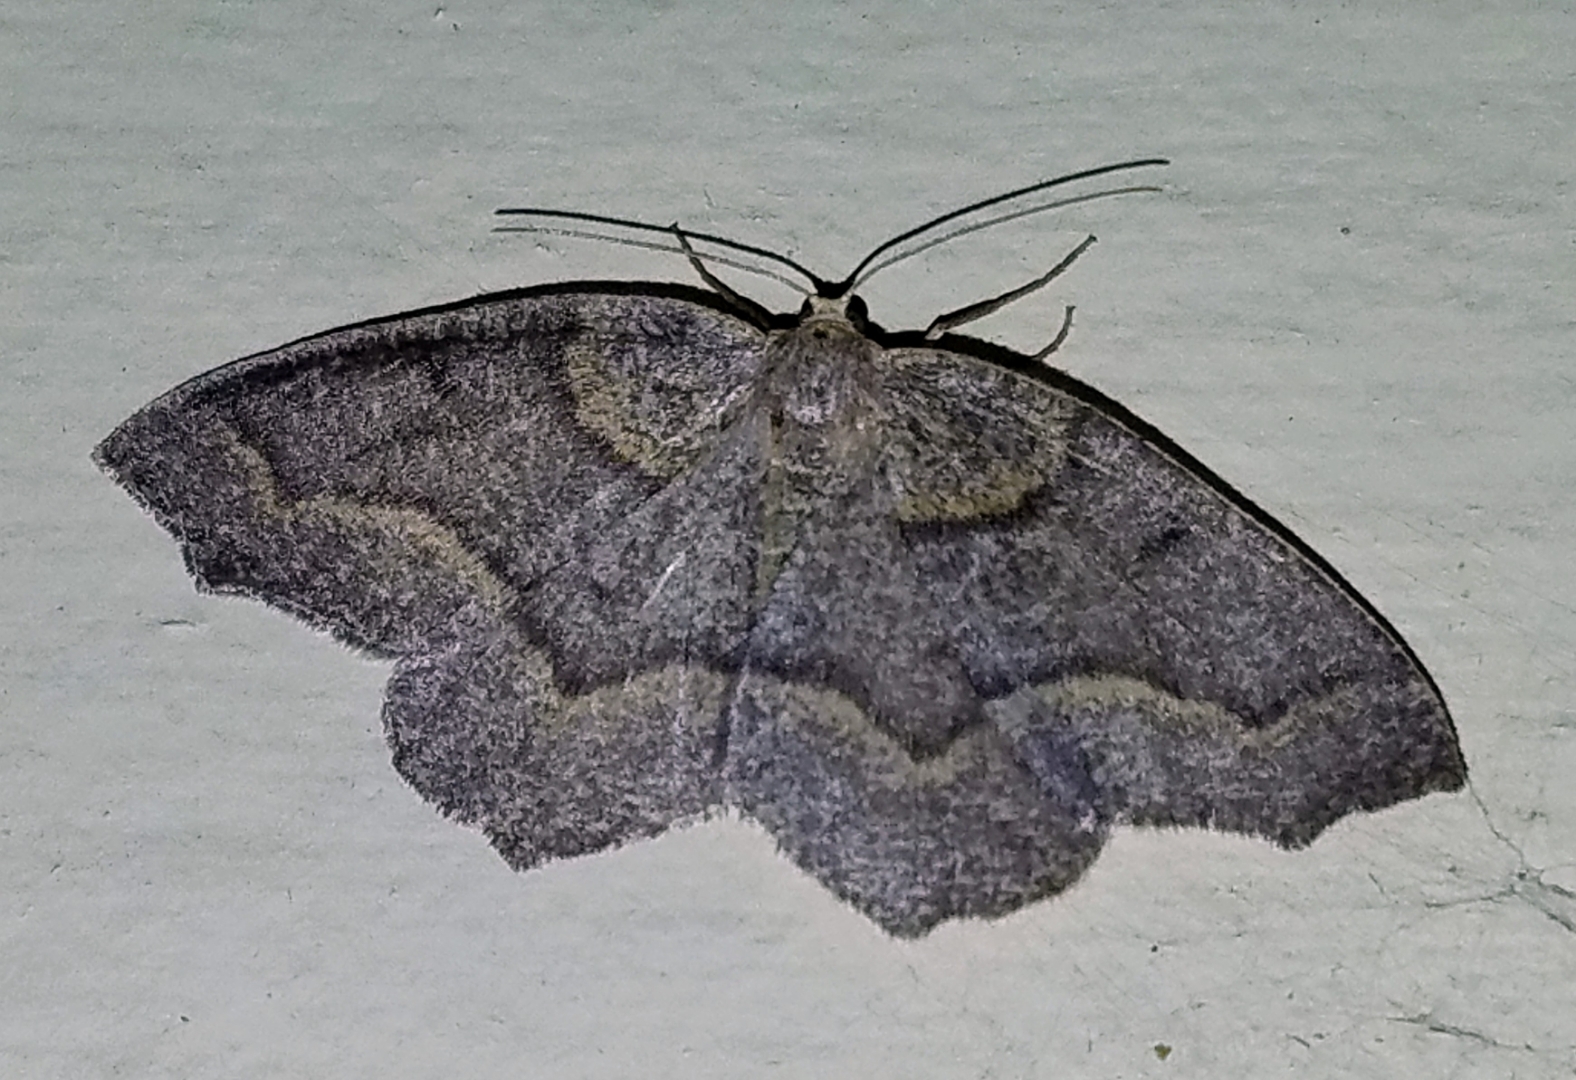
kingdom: Animalia
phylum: Arthropoda
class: Insecta
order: Lepidoptera
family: Geometridae
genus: Lambdina
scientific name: Lambdina fiscellaria
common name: Hemlock looper
